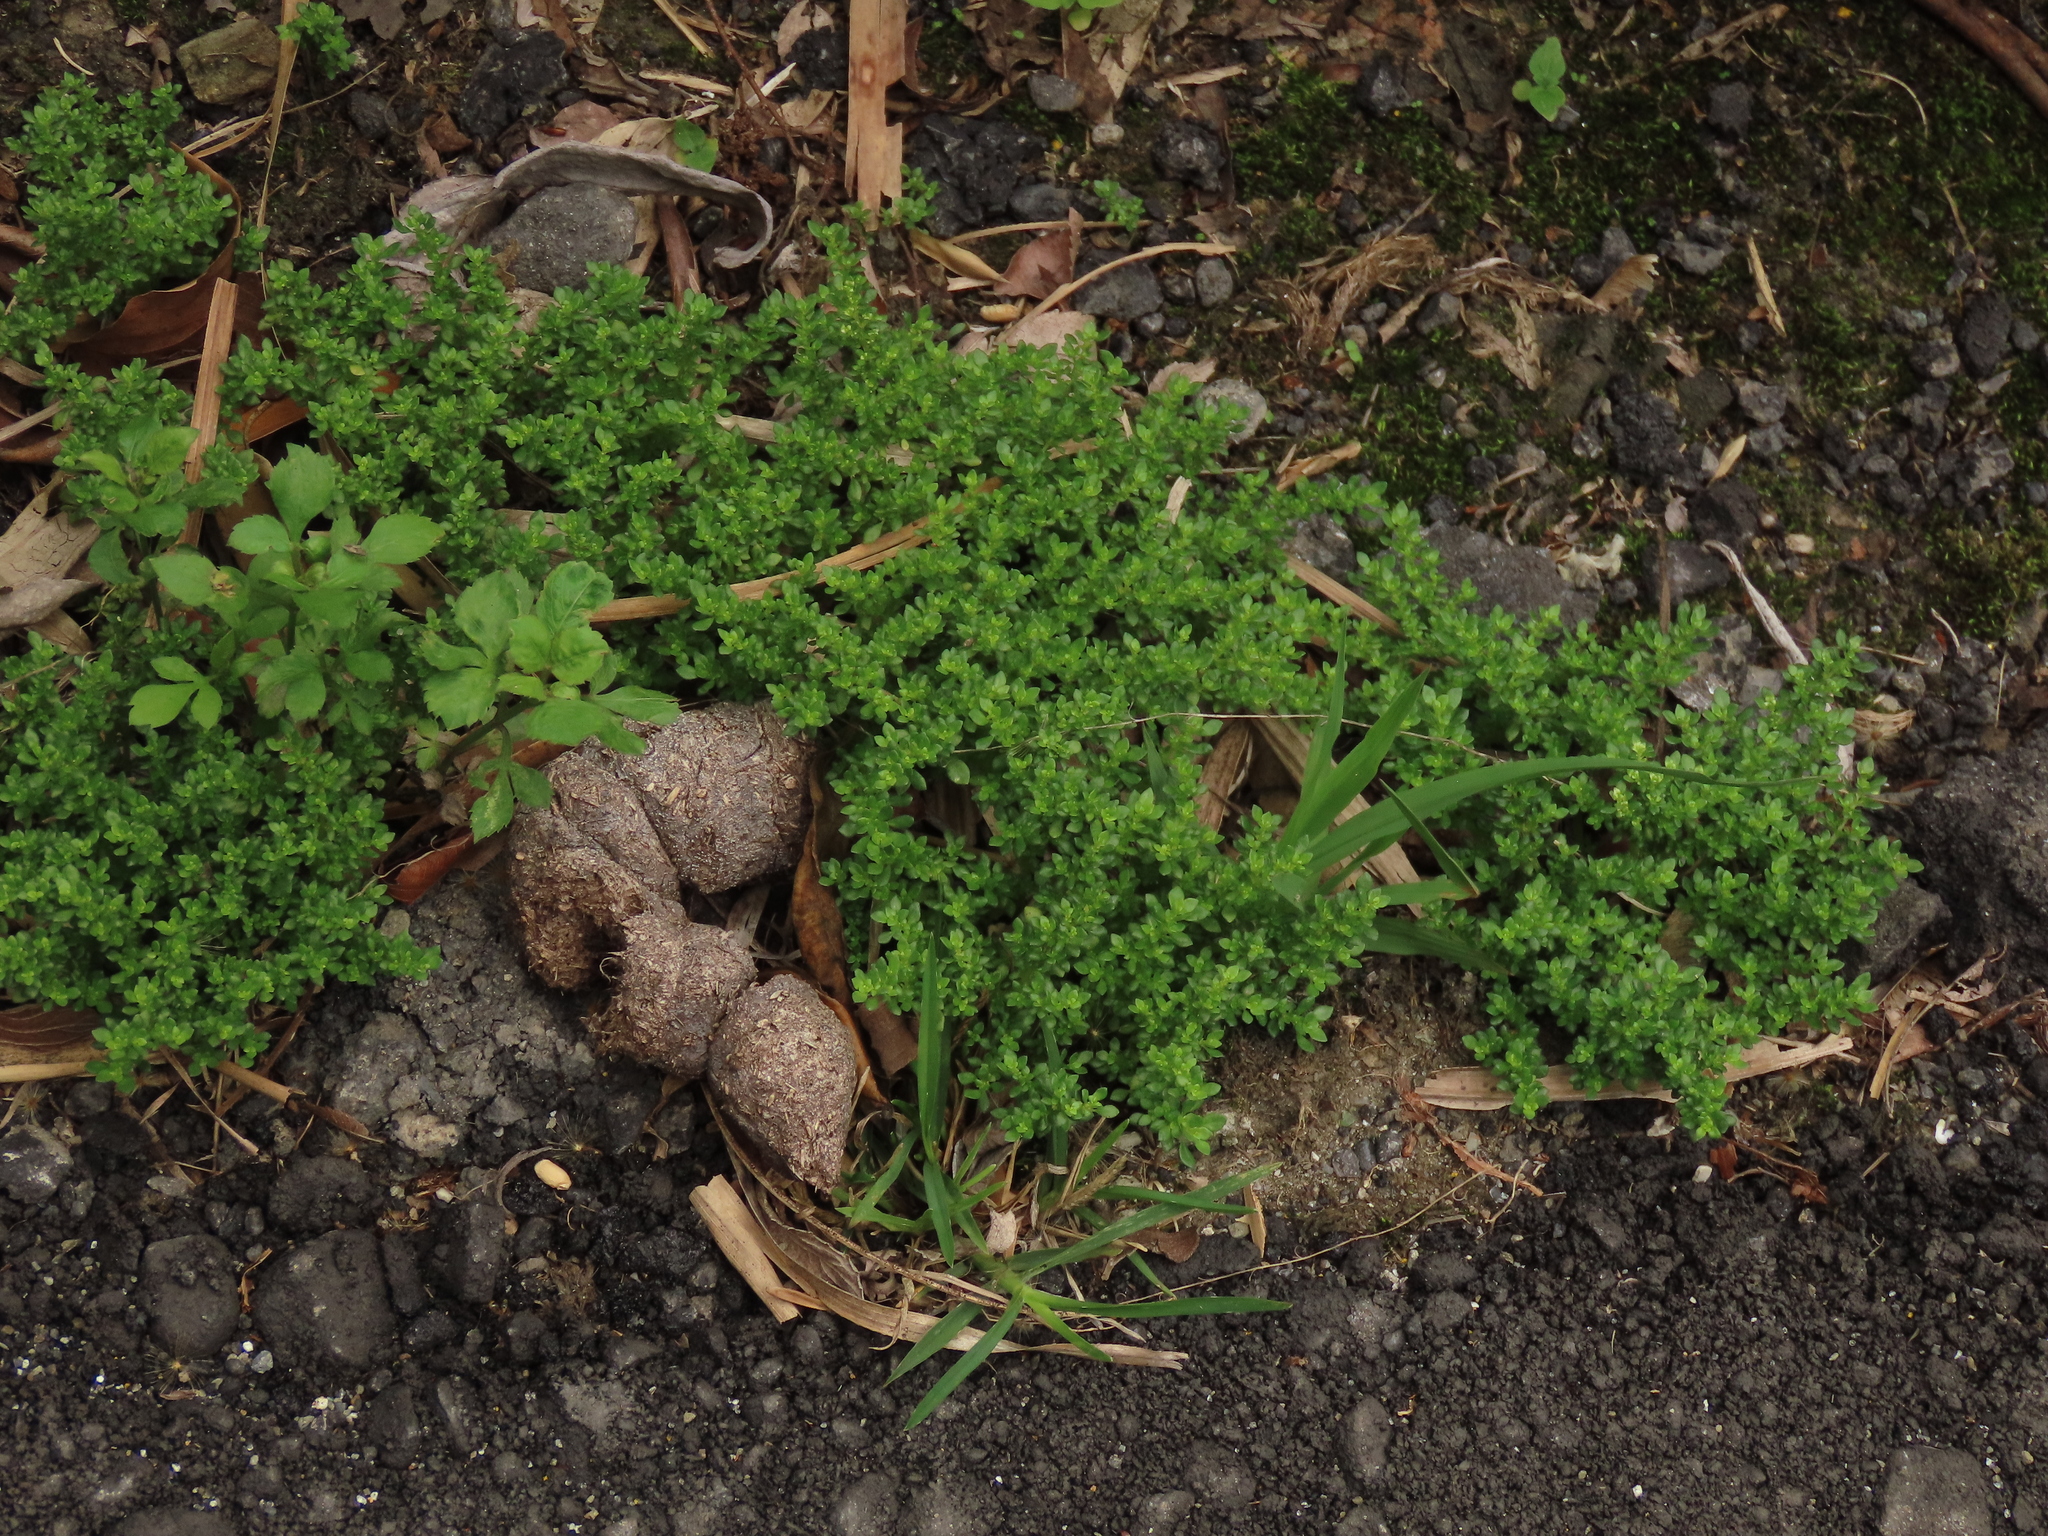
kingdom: Plantae
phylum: Tracheophyta
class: Magnoliopsida
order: Rosales
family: Urticaceae
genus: Pilea
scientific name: Pilea microphylla
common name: Artillery-plant
